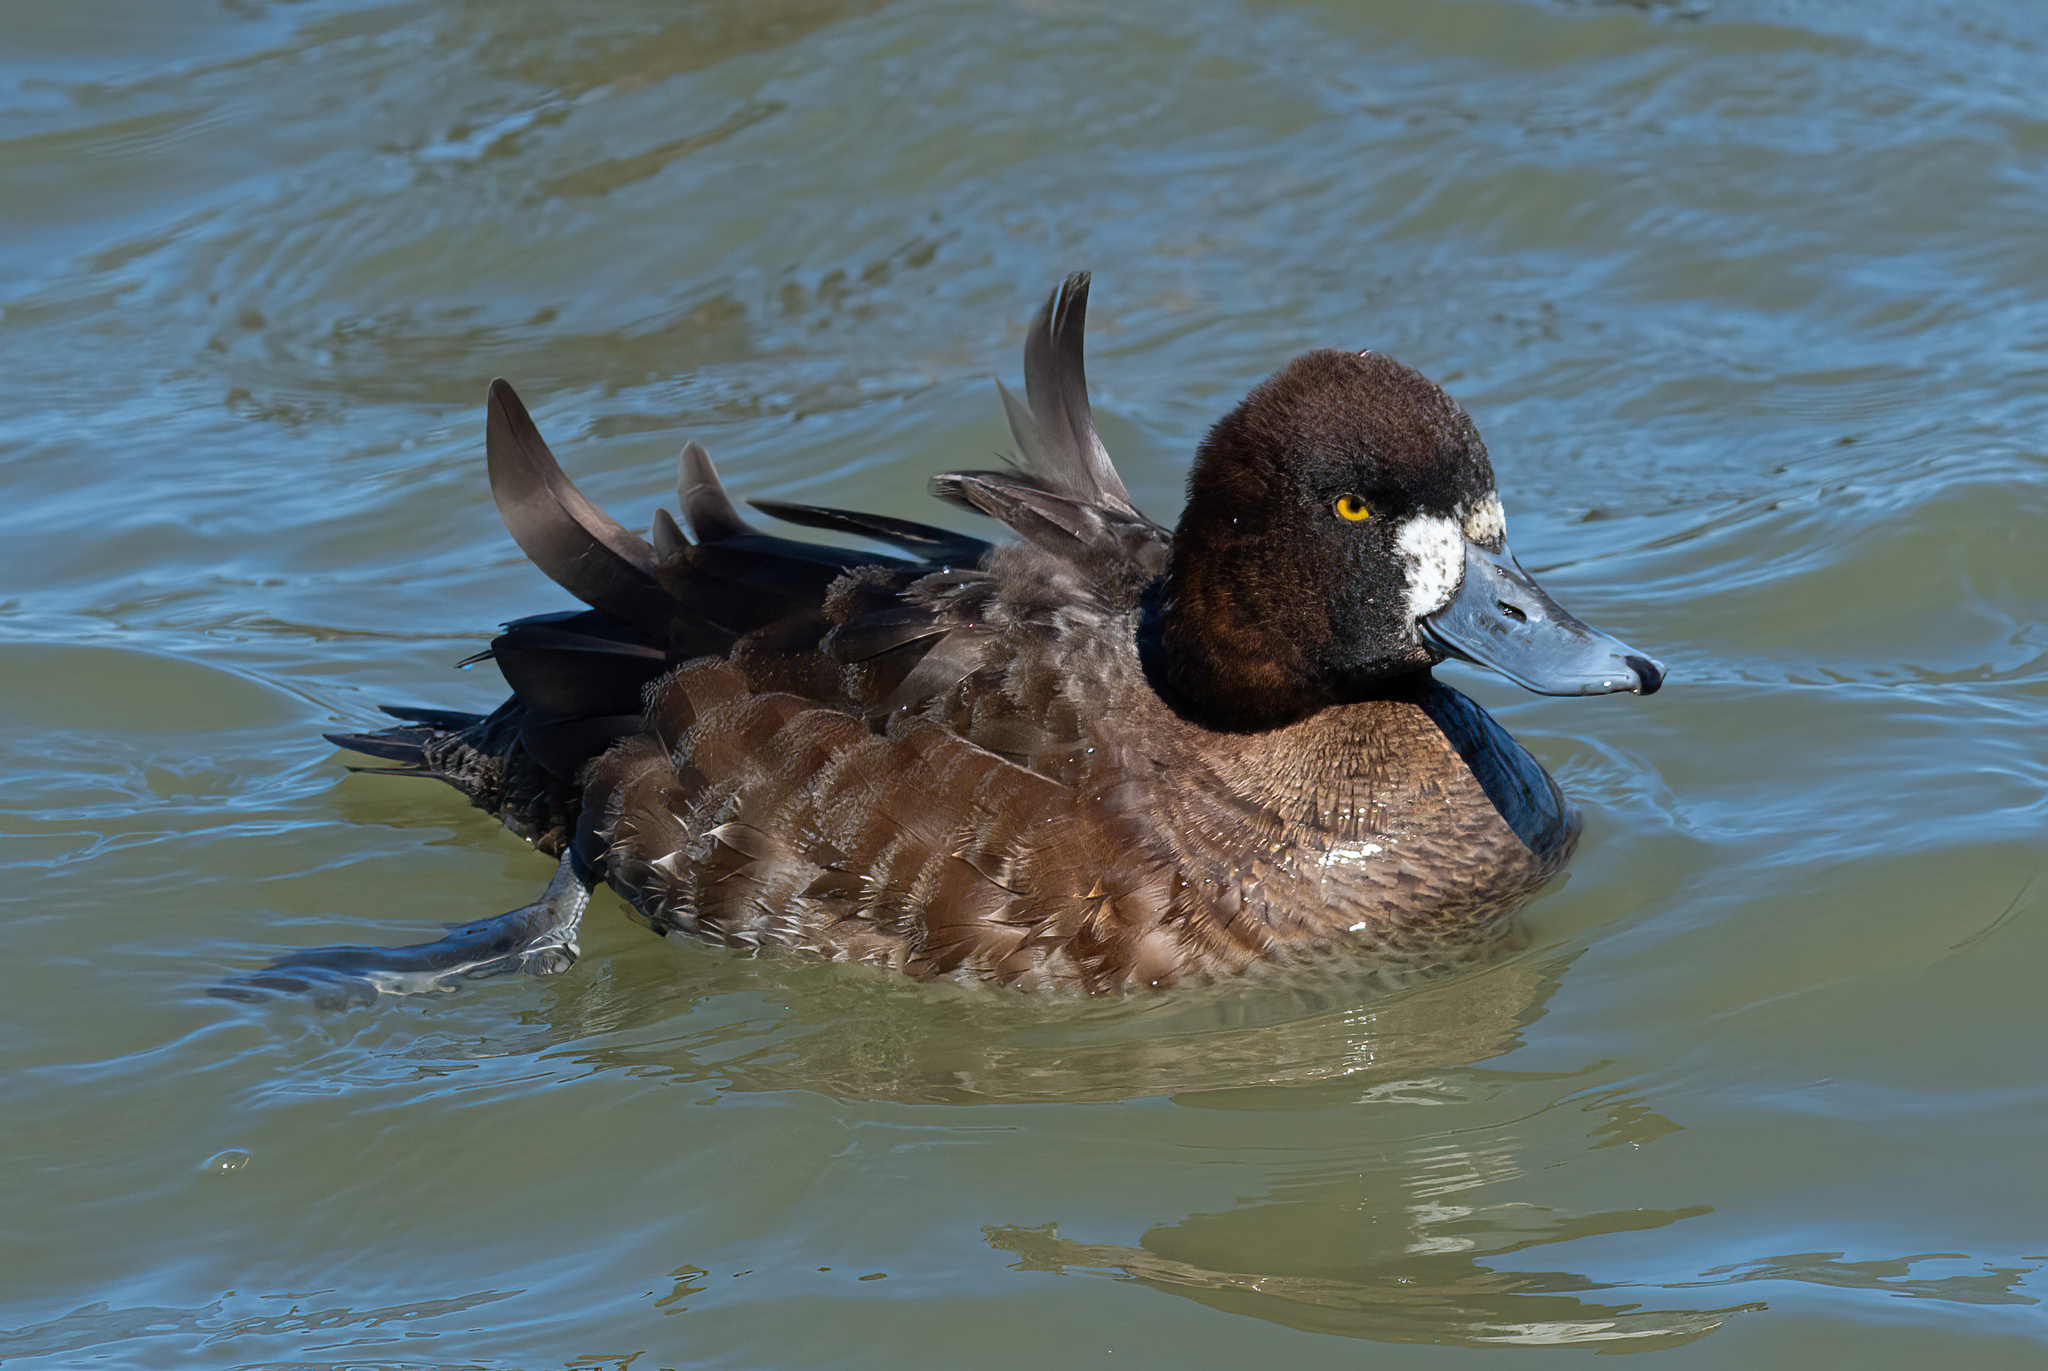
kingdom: Animalia
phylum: Chordata
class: Aves
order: Anseriformes
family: Anatidae
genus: Aythya
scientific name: Aythya affinis
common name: Lesser scaup
